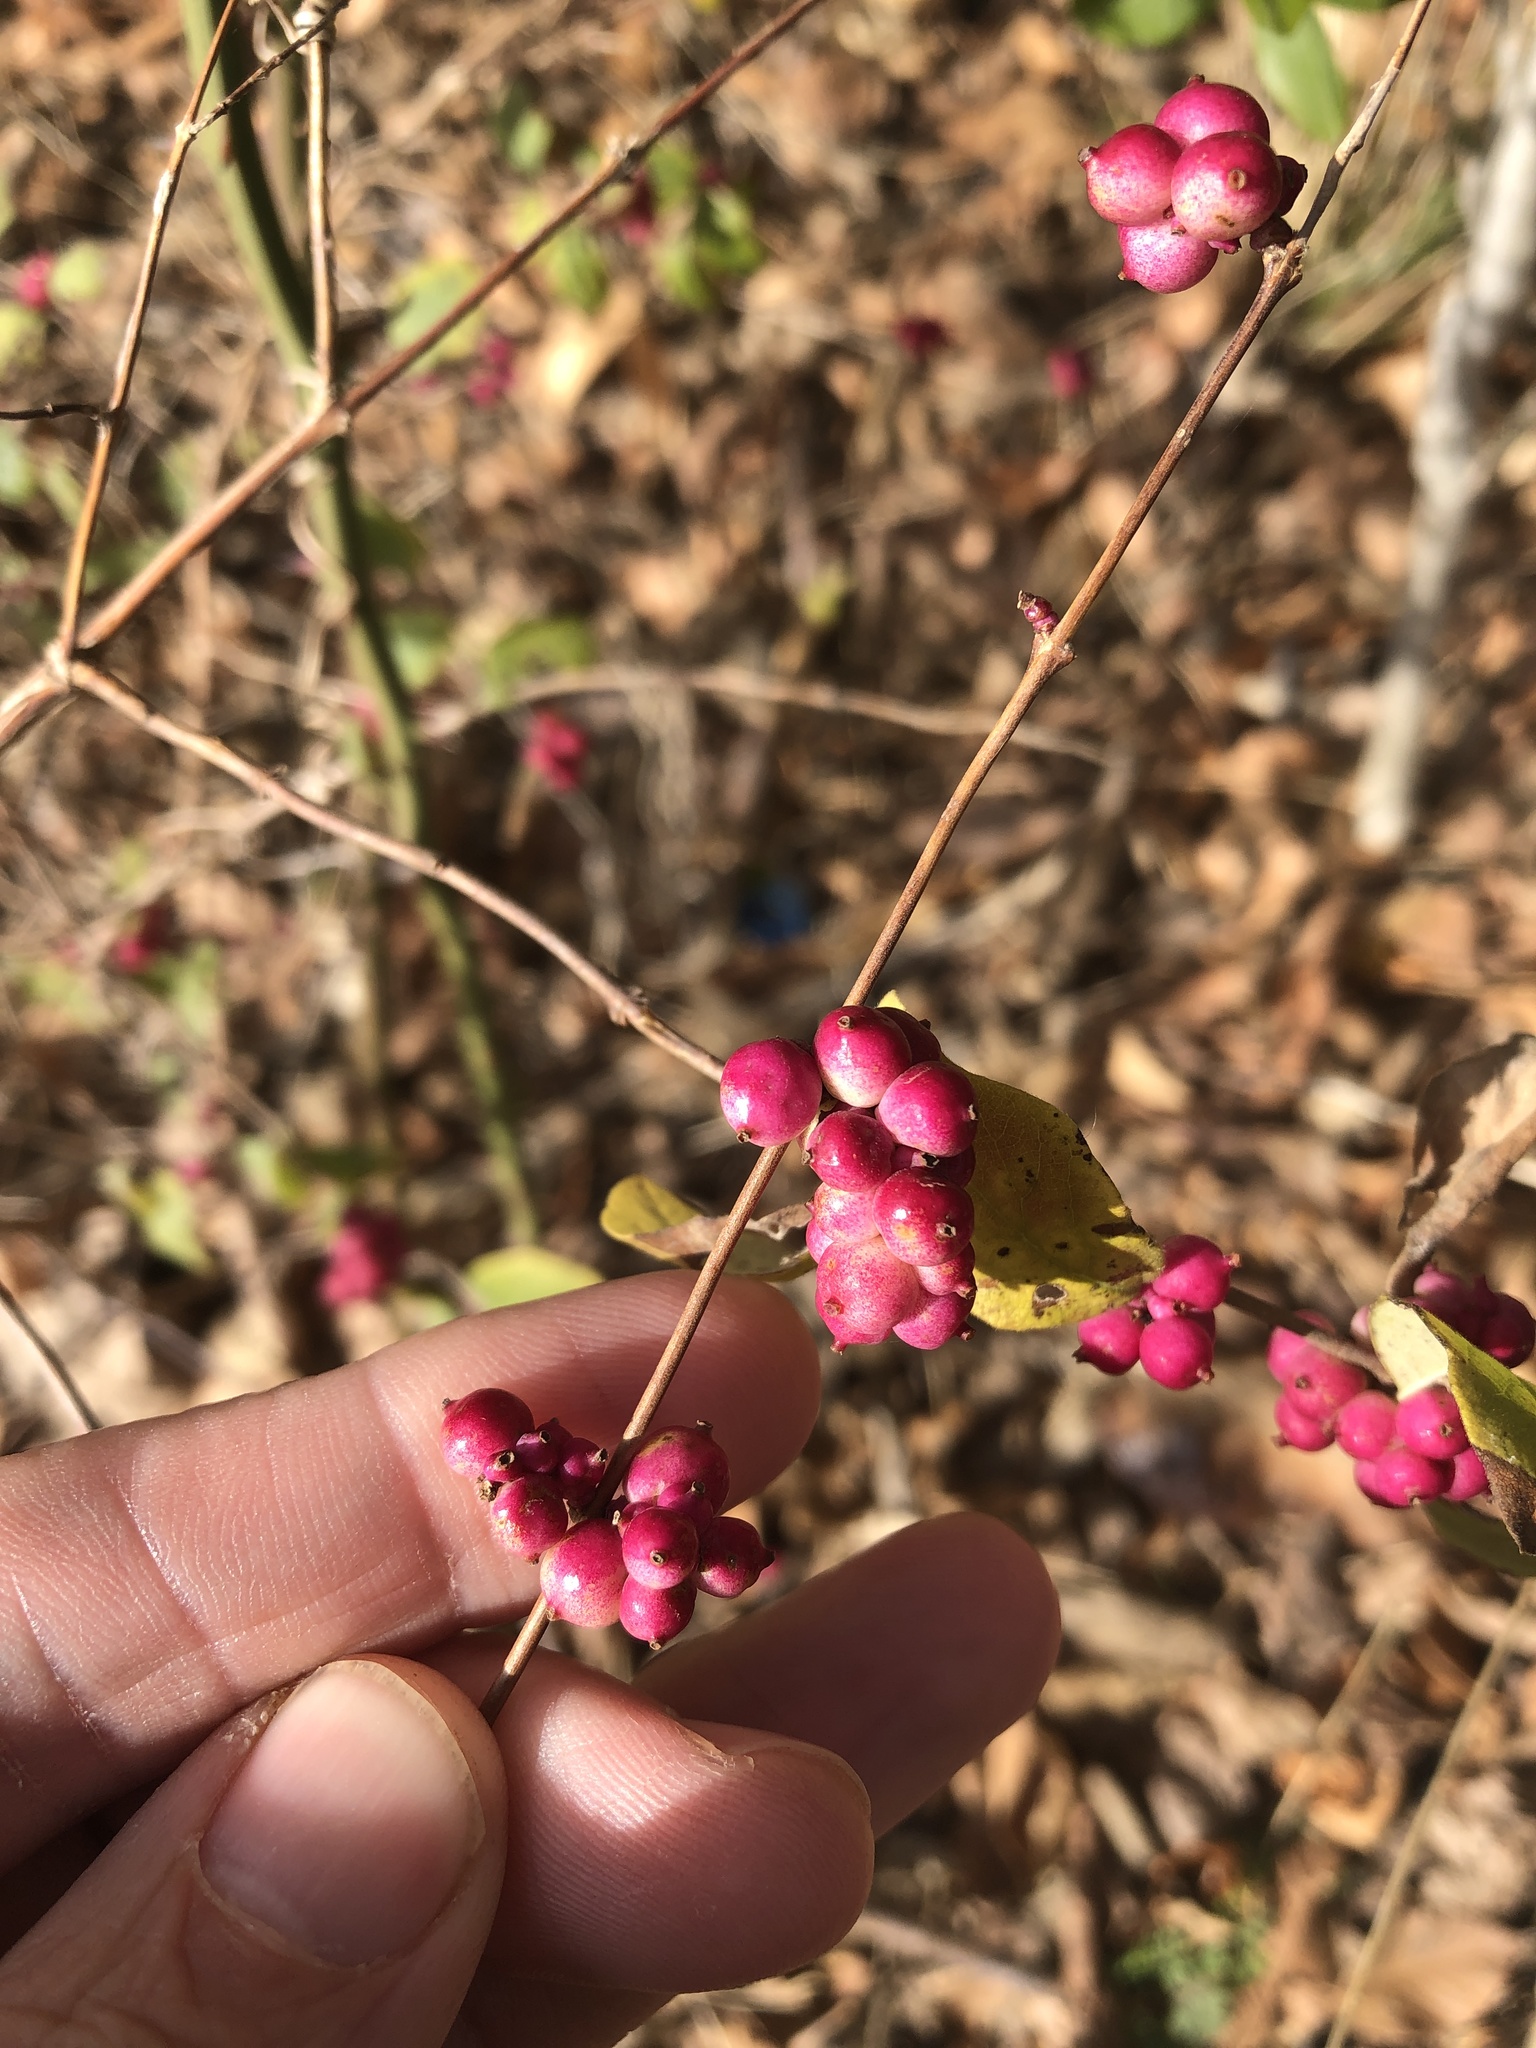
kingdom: Plantae
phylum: Tracheophyta
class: Magnoliopsida
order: Dipsacales
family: Caprifoliaceae
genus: Symphoricarpos
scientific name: Symphoricarpos orbiculatus
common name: Coralberry
